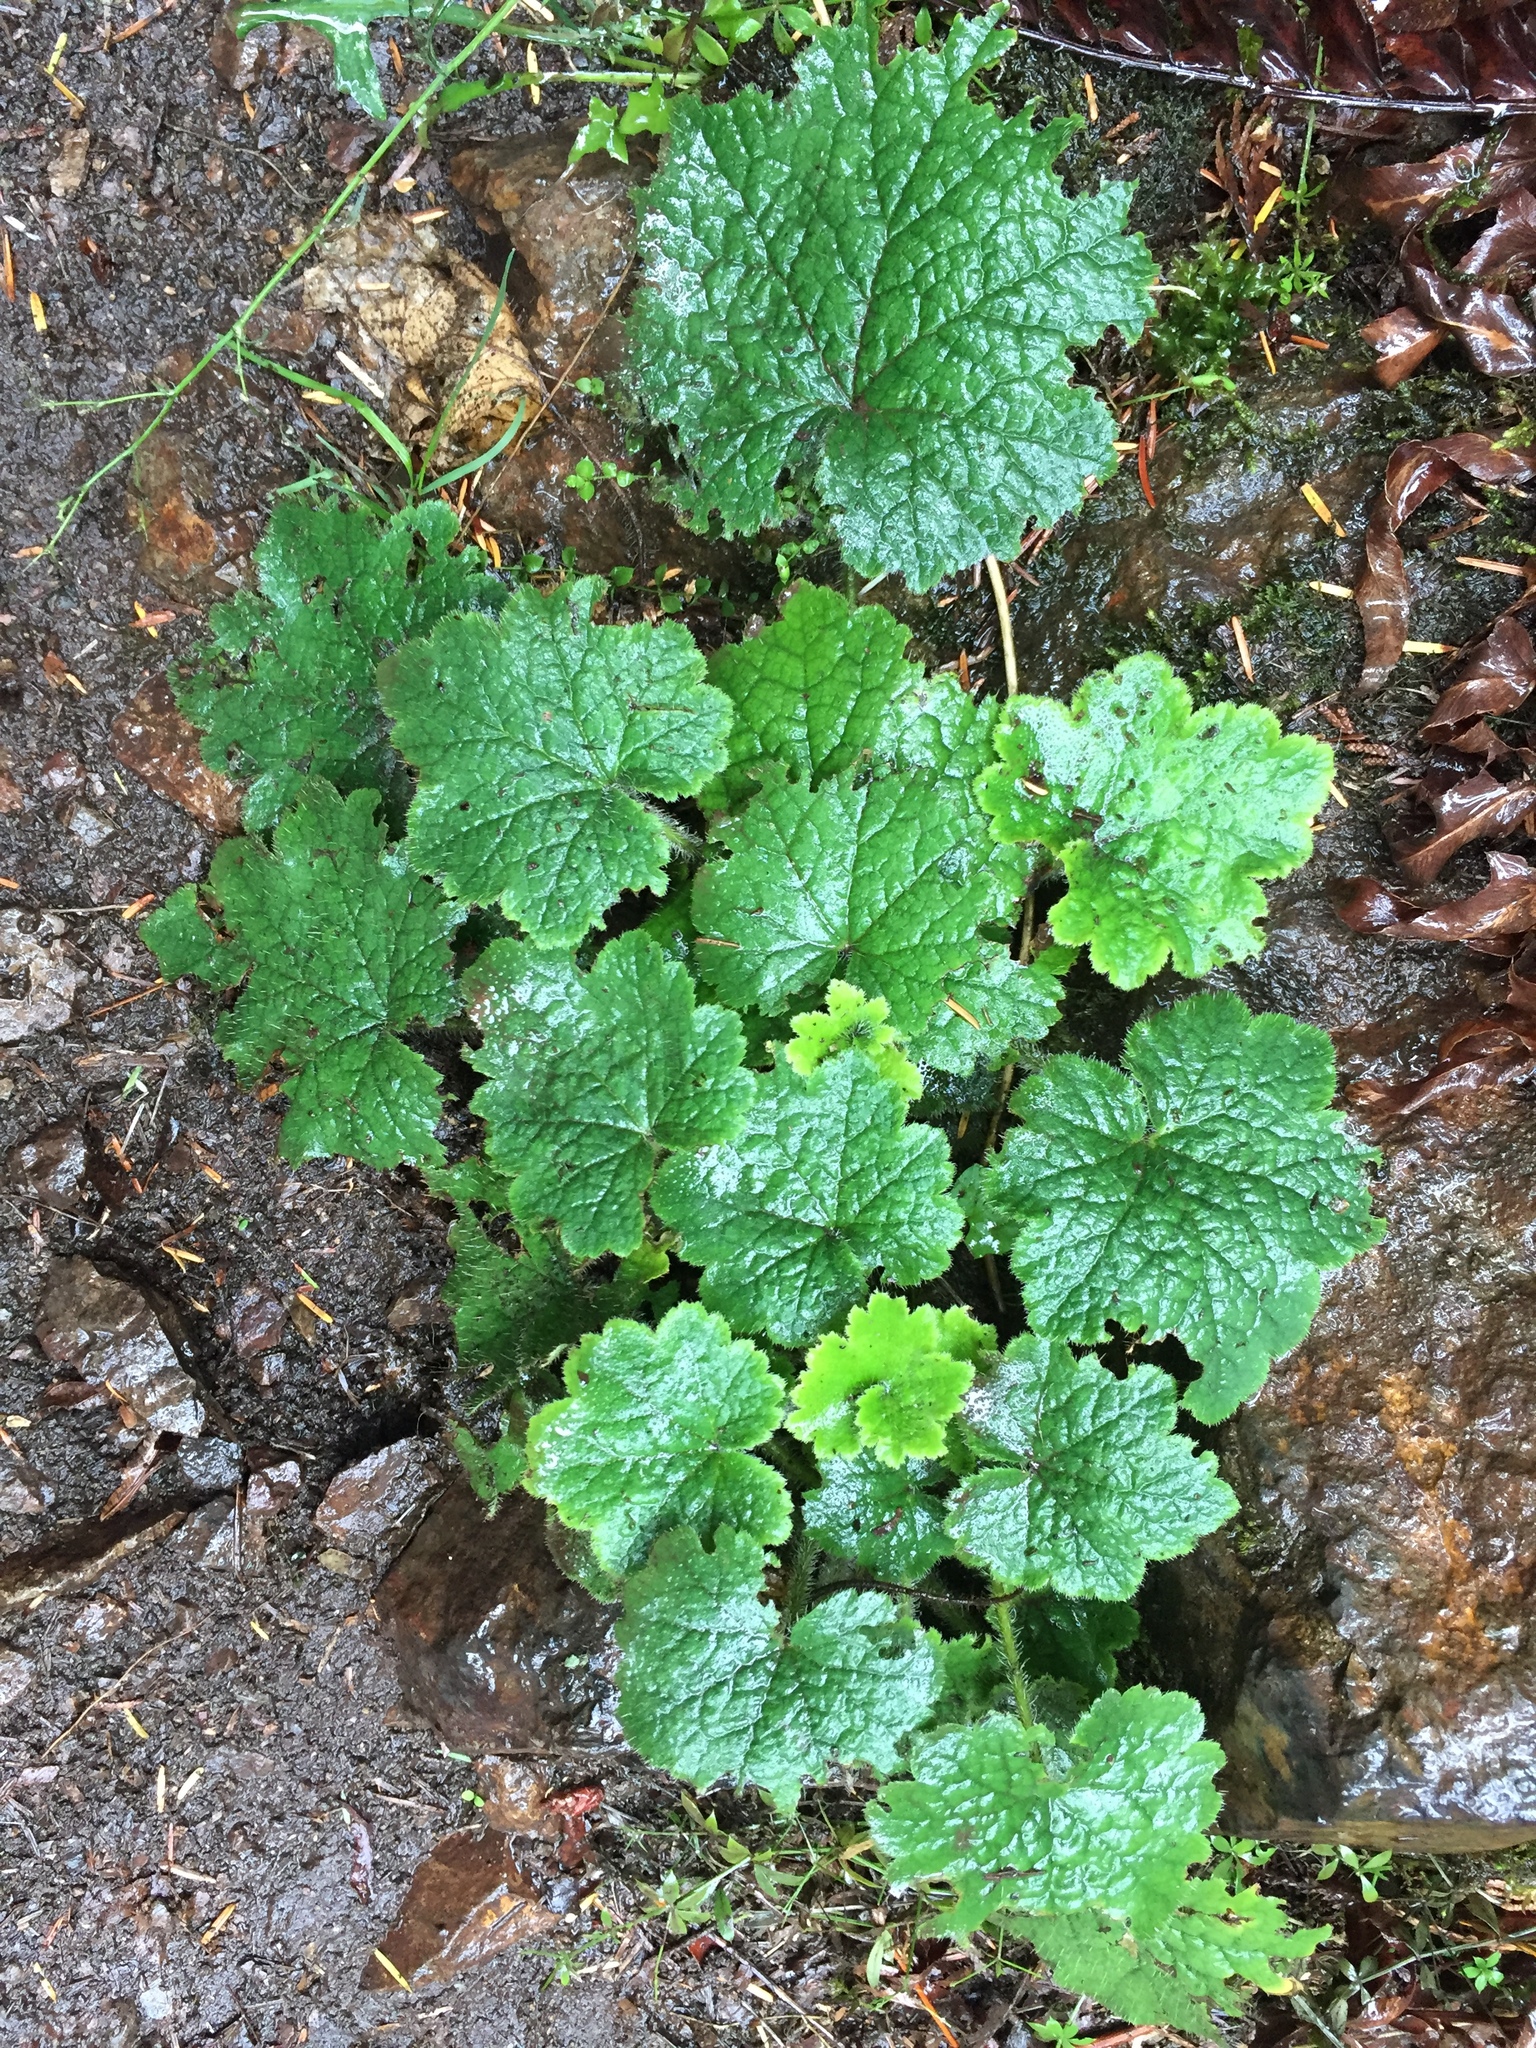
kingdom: Plantae
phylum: Tracheophyta
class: Magnoliopsida
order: Saxifragales
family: Saxifragaceae
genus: Tolmiea
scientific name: Tolmiea menziesii
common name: Pick-a-back-plant
